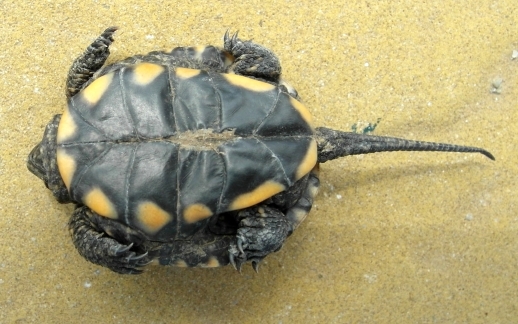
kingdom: Animalia
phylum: Chordata
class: Testudines
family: Emydidae
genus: Emys
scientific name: Emys orbicularis
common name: European pond turtle
